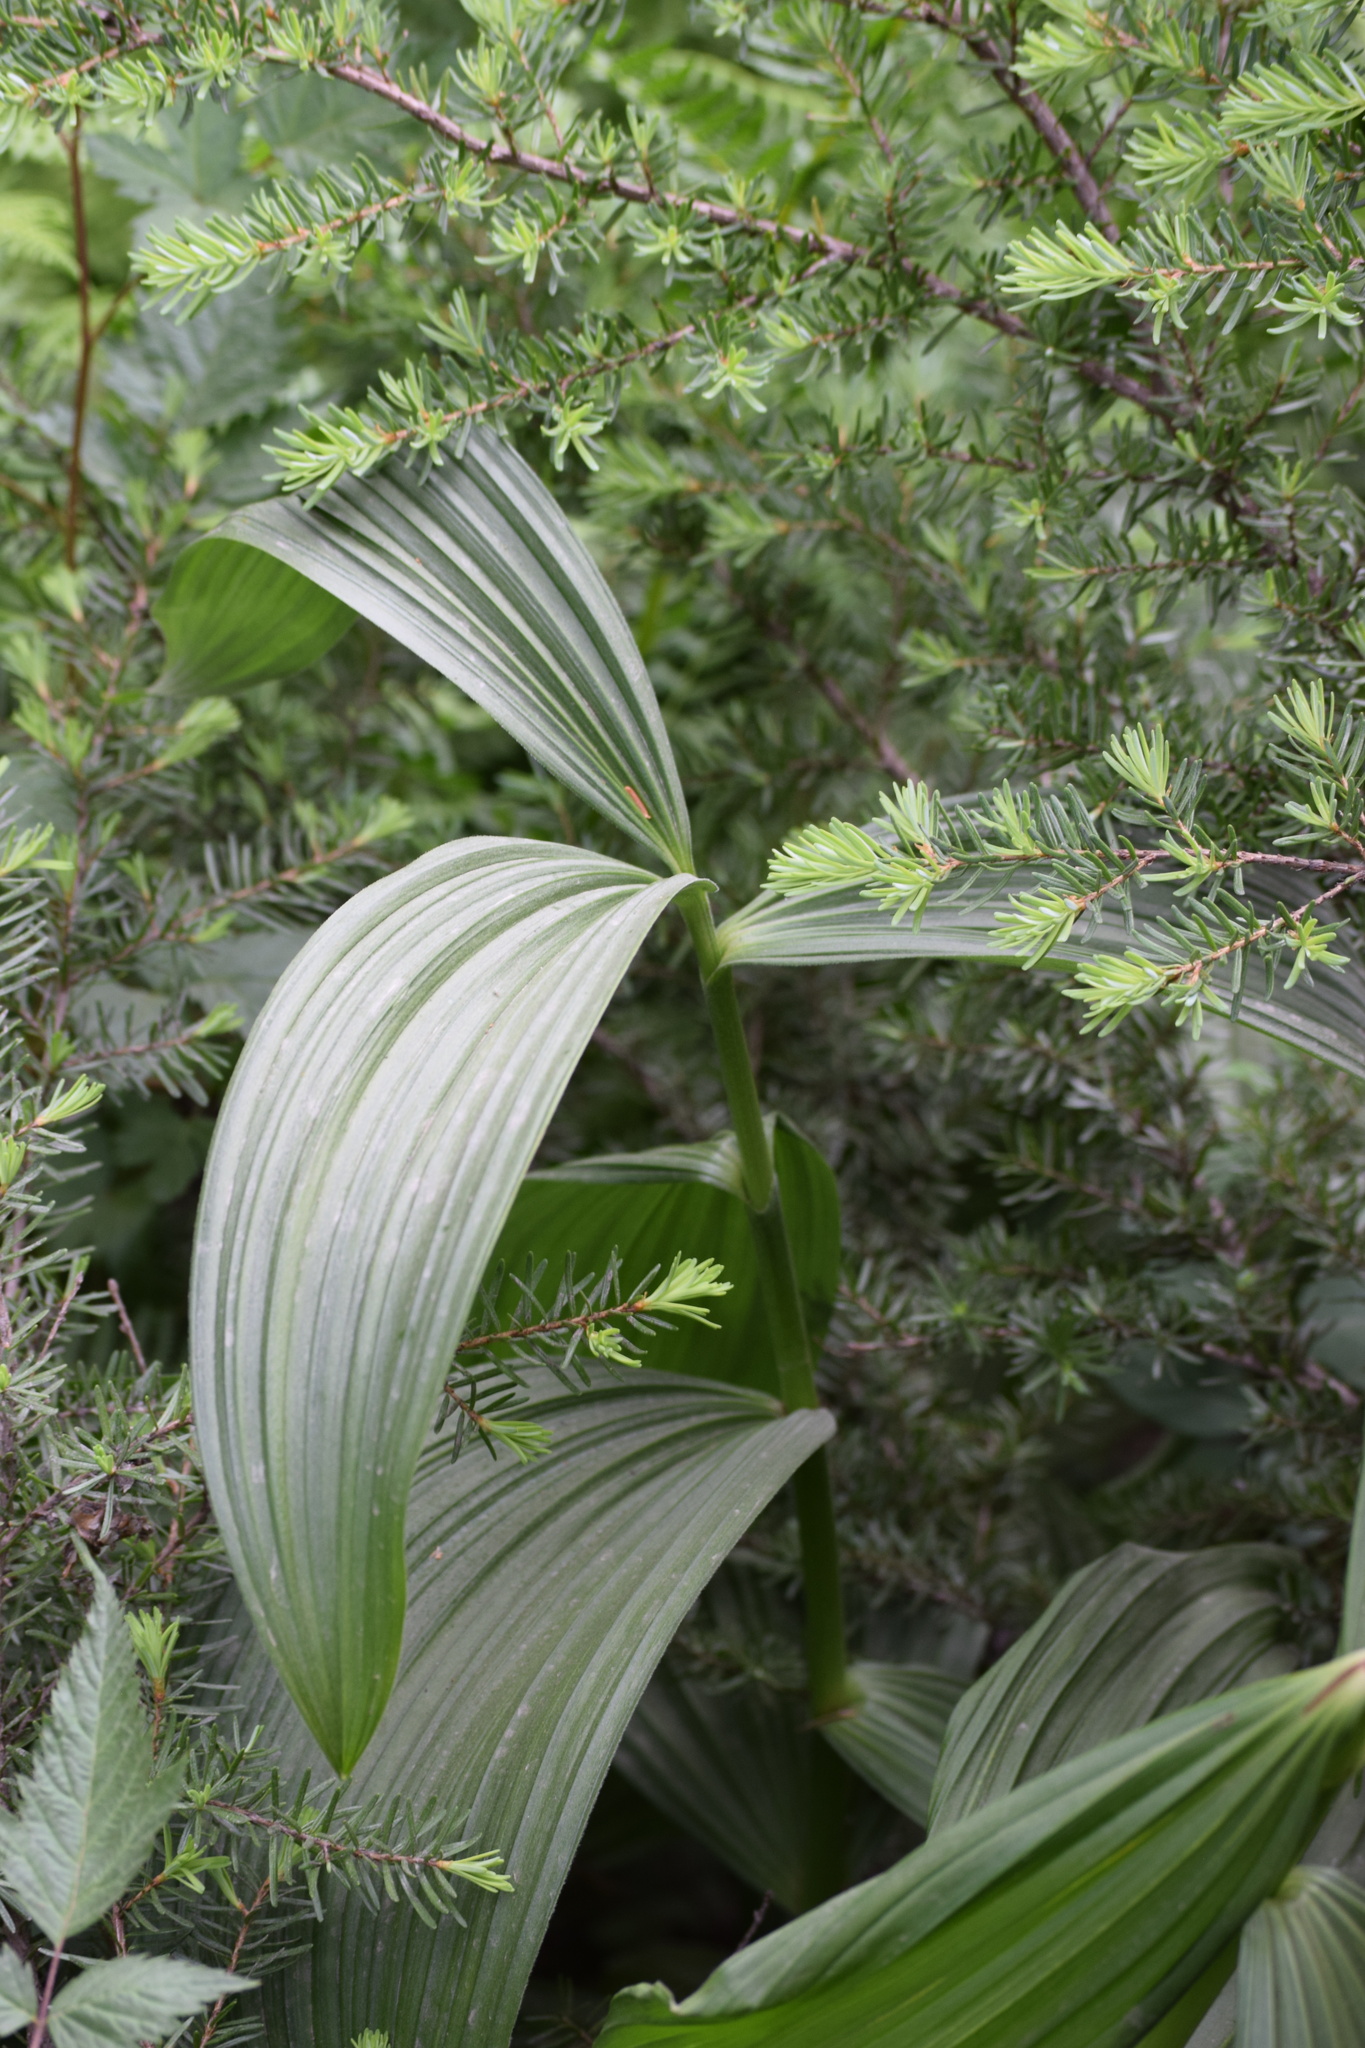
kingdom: Plantae
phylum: Tracheophyta
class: Liliopsida
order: Liliales
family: Melanthiaceae
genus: Veratrum
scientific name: Veratrum viride
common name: American false hellebore
